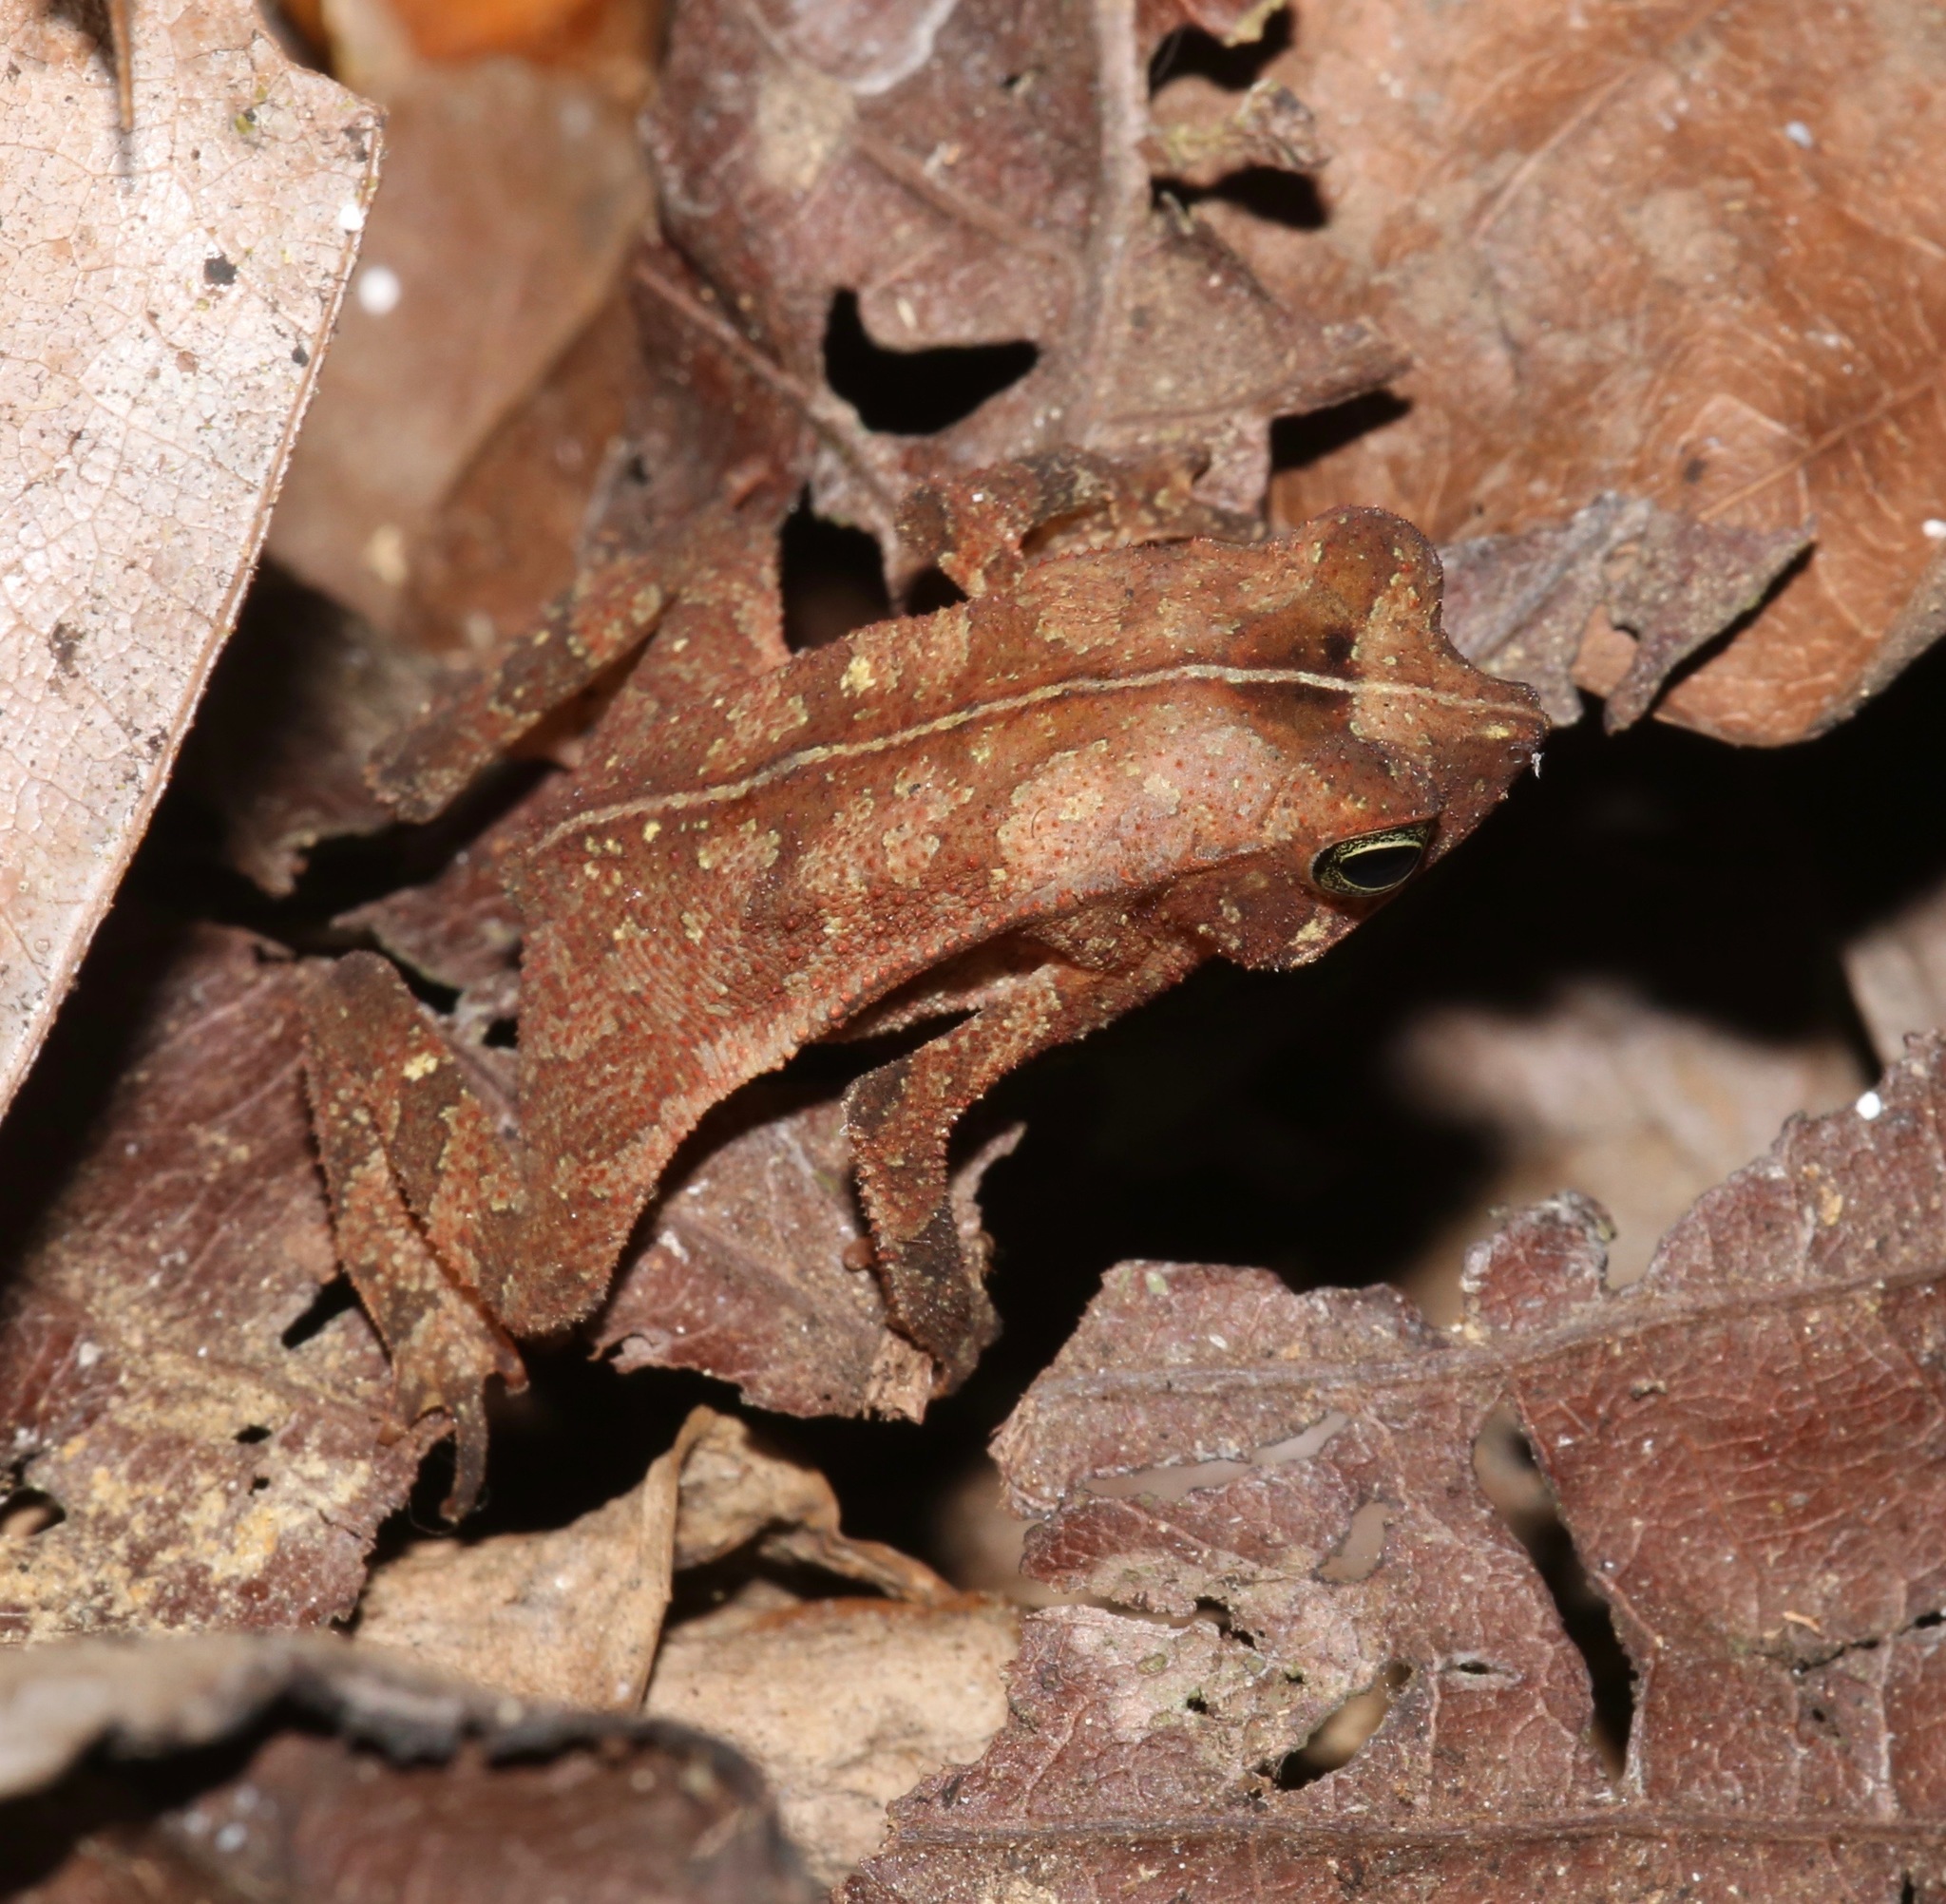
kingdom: Animalia
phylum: Chordata
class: Amphibia
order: Anura
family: Bufonidae
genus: Rhinella
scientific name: Rhinella alata
